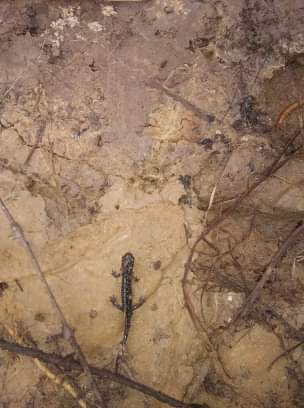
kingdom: Animalia
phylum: Chordata
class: Amphibia
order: Caudata
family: Plethodontidae
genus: Plethodon
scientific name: Plethodon glutinosus
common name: Northern slimy salamander
